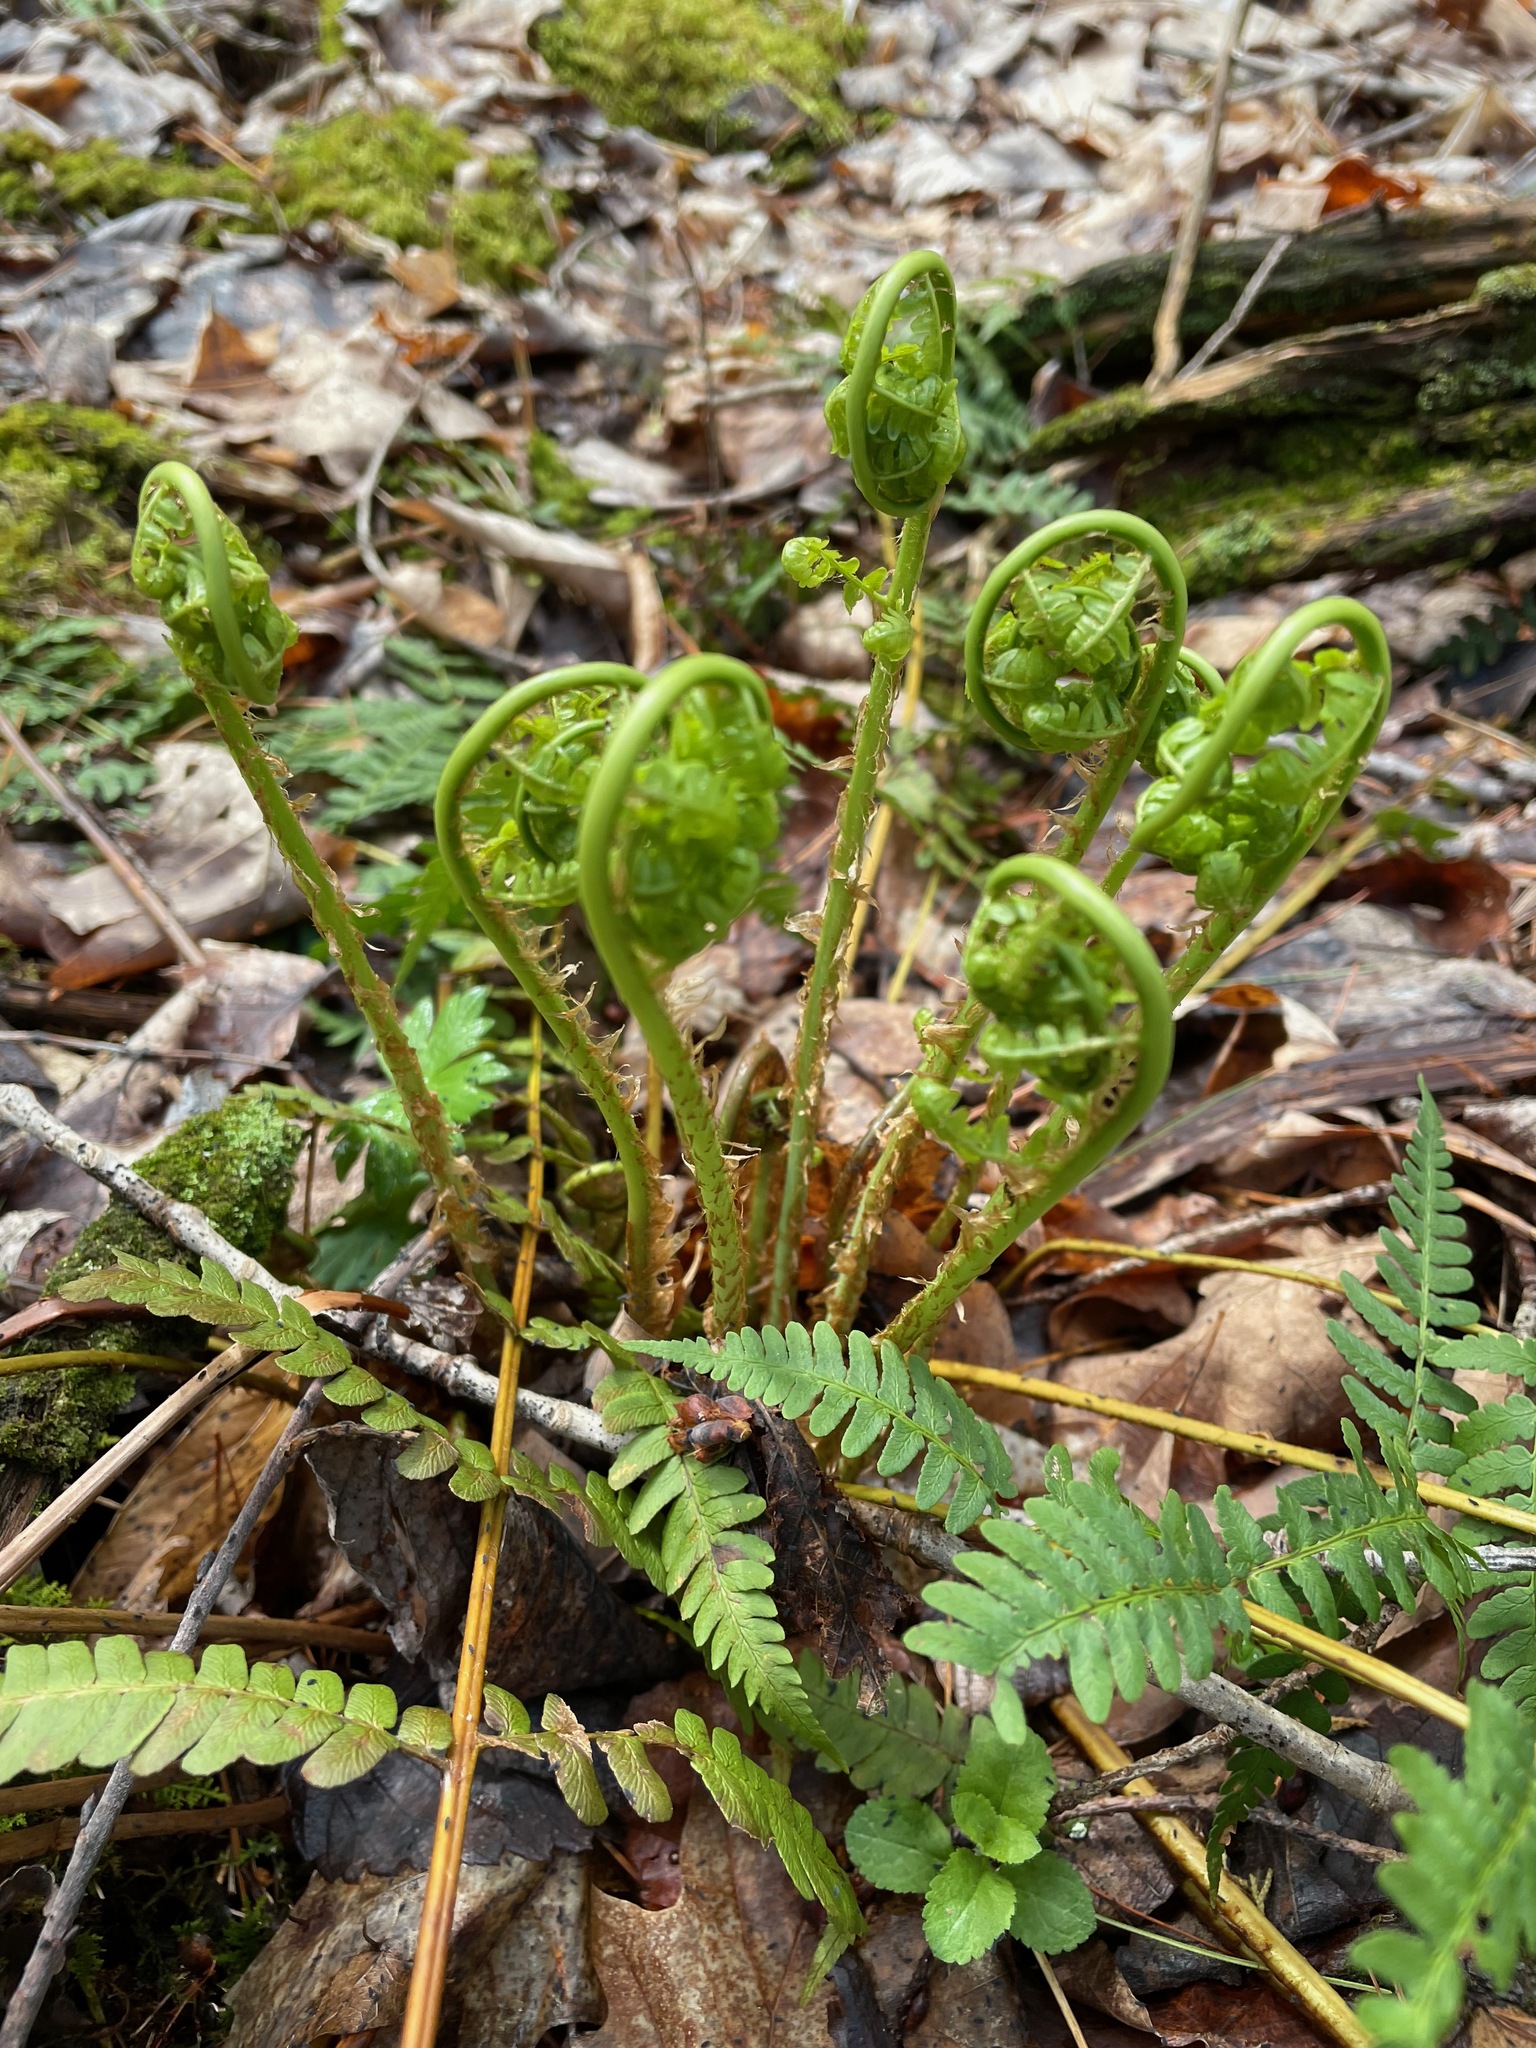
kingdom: Plantae
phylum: Tracheophyta
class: Polypodiopsida
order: Polypodiales
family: Dryopteridaceae
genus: Dryopteris
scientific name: Dryopteris marginalis
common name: Marginal wood fern
